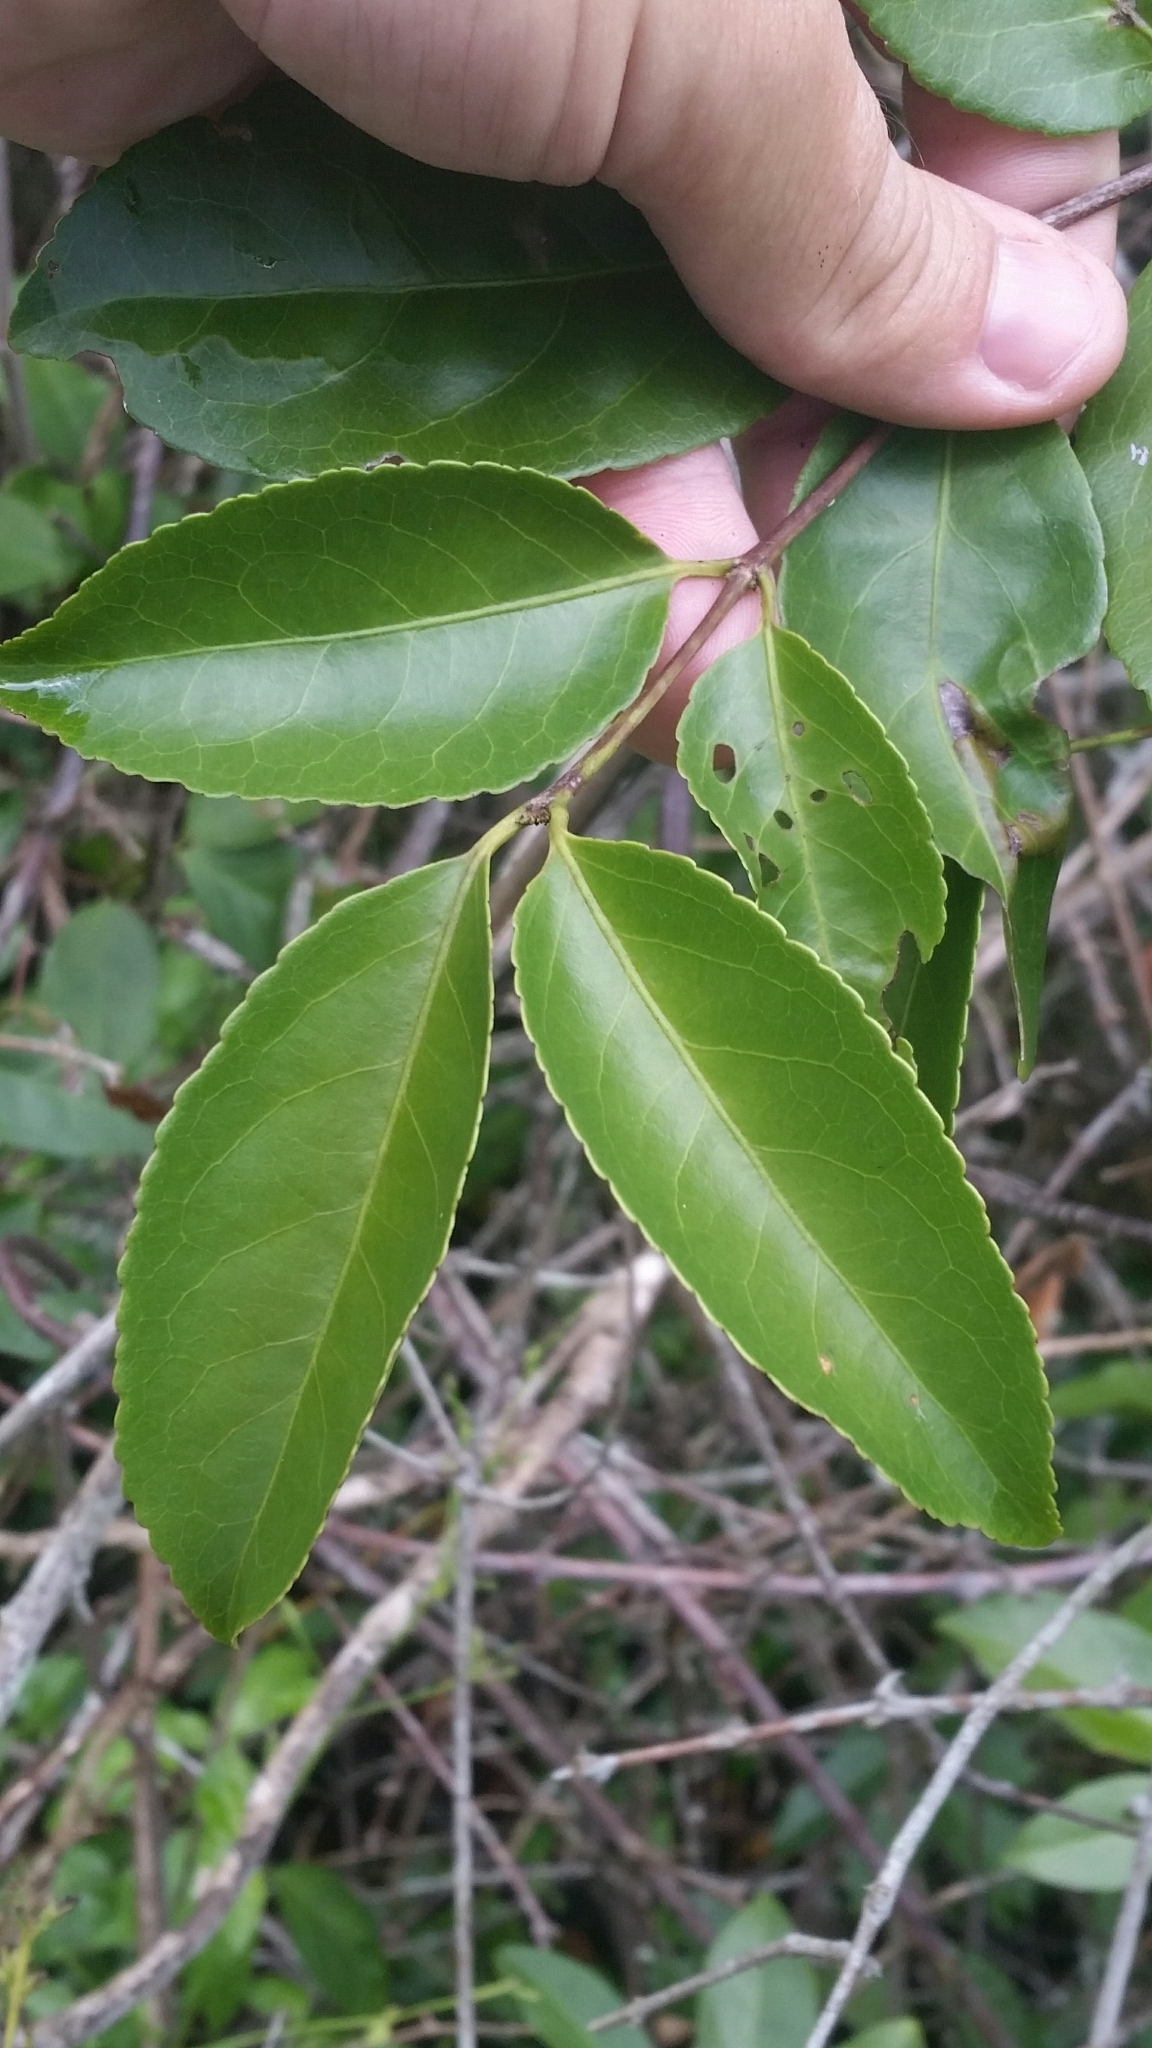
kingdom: Plantae
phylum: Tracheophyta
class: Magnoliopsida
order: Celastrales
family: Celastraceae
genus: Hippocratea
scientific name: Hippocratea volubilis
